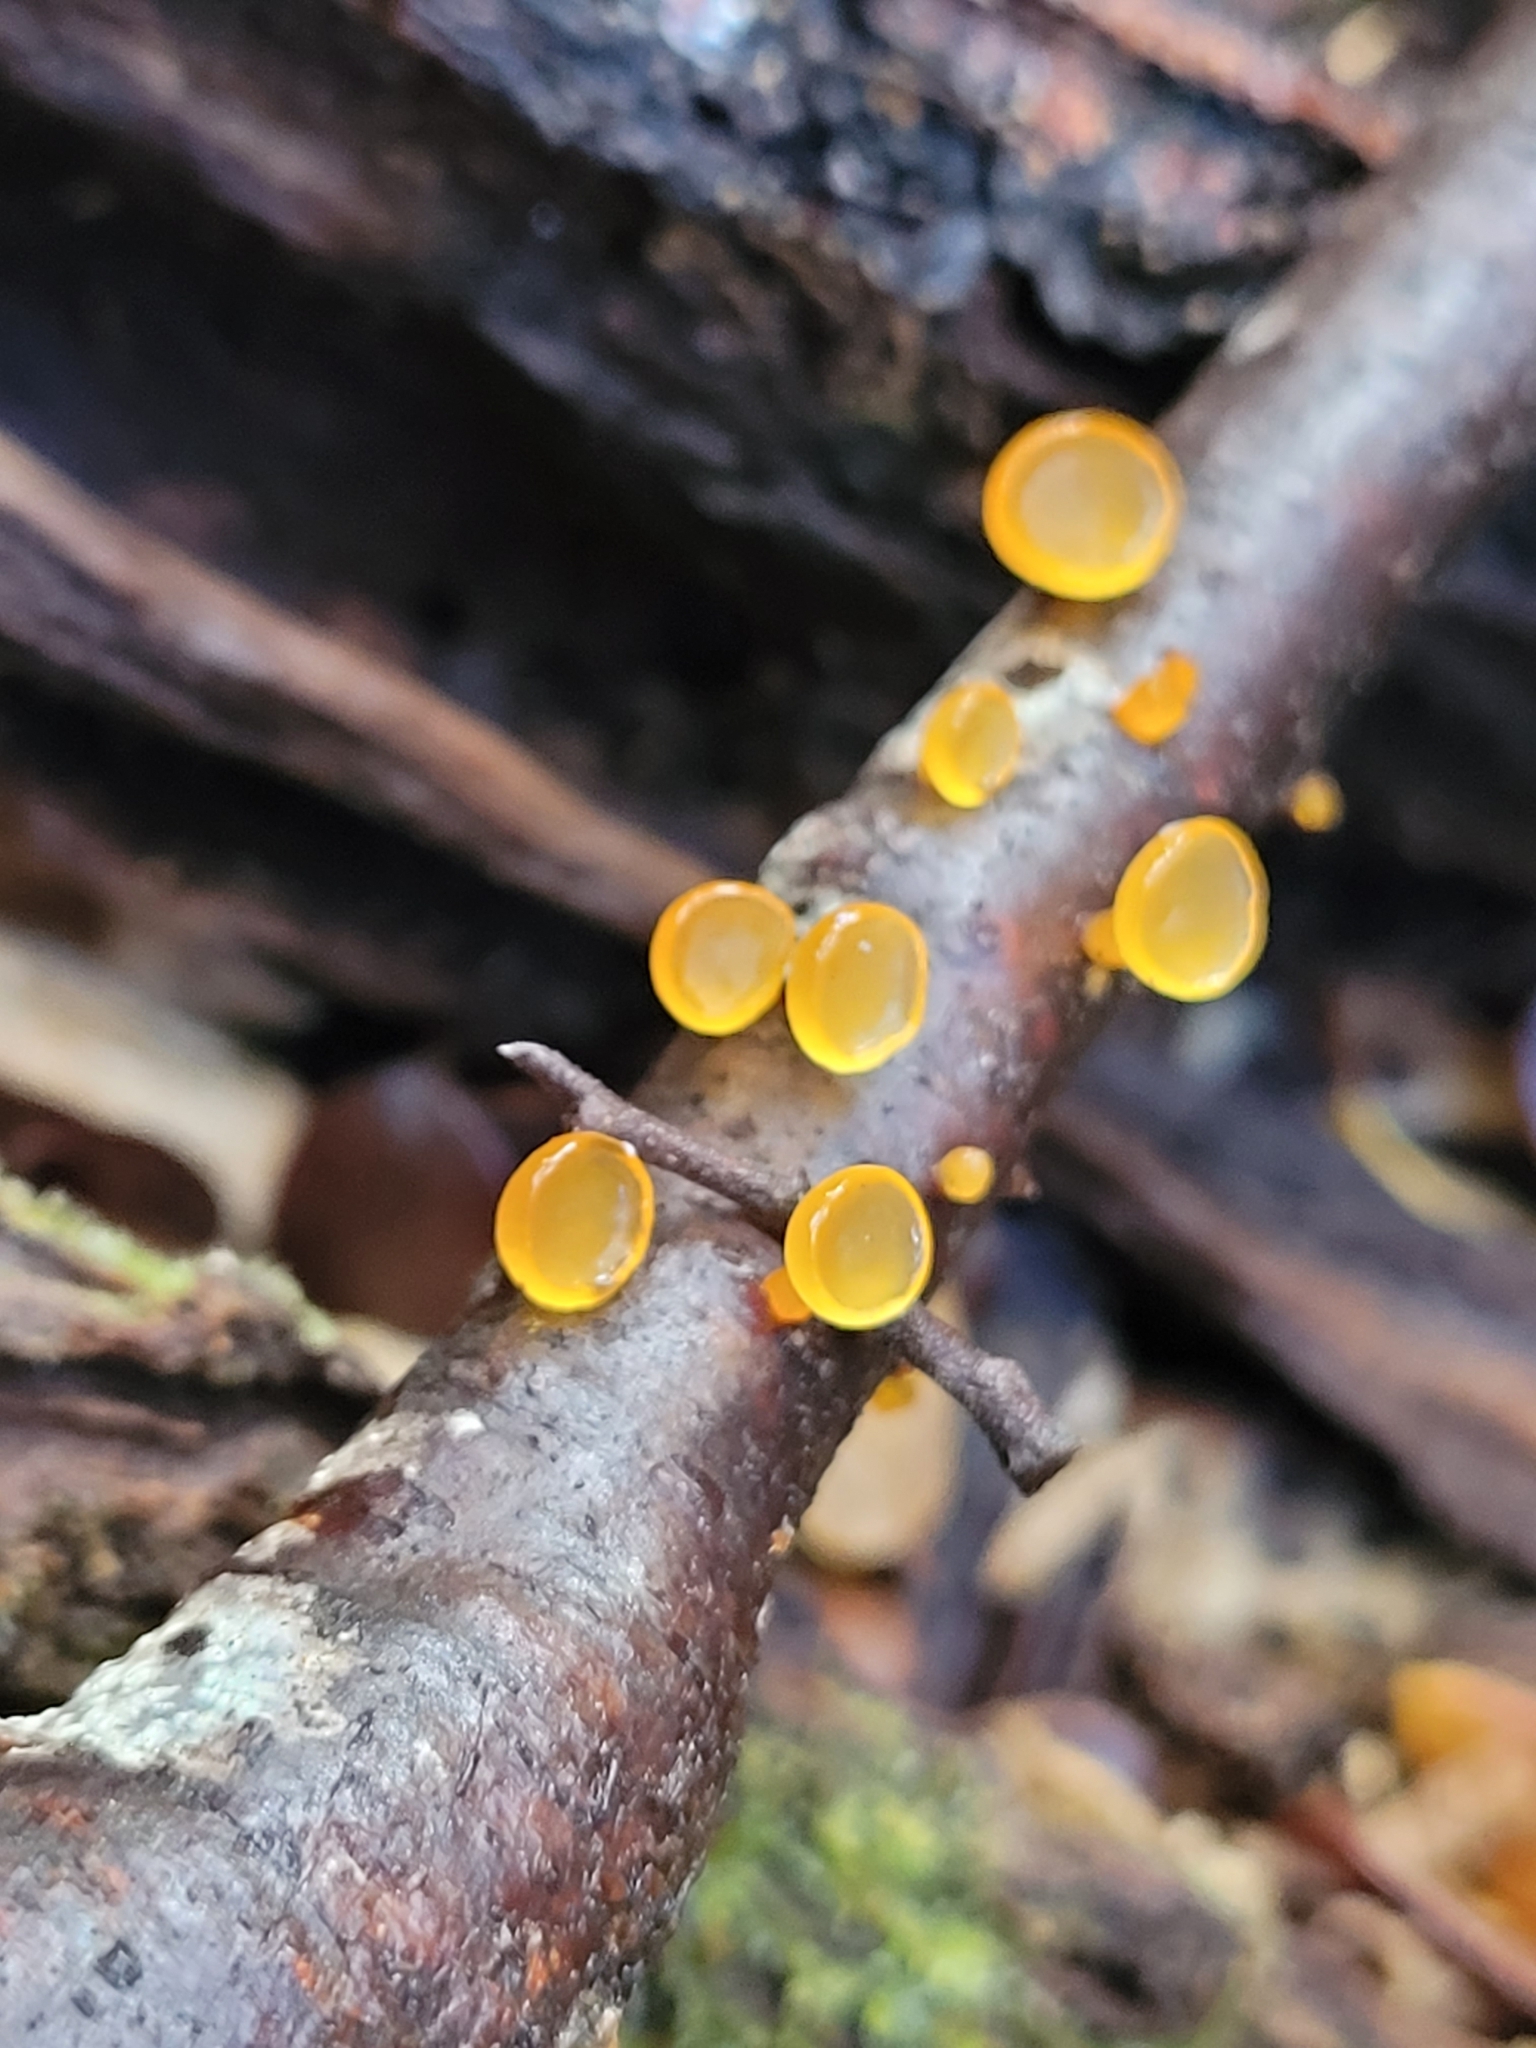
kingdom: Fungi
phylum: Basidiomycota
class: Dacrymycetes
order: Dacrymycetales
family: Dacrymycetaceae
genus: Heterotextus
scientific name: Heterotextus miltinus
